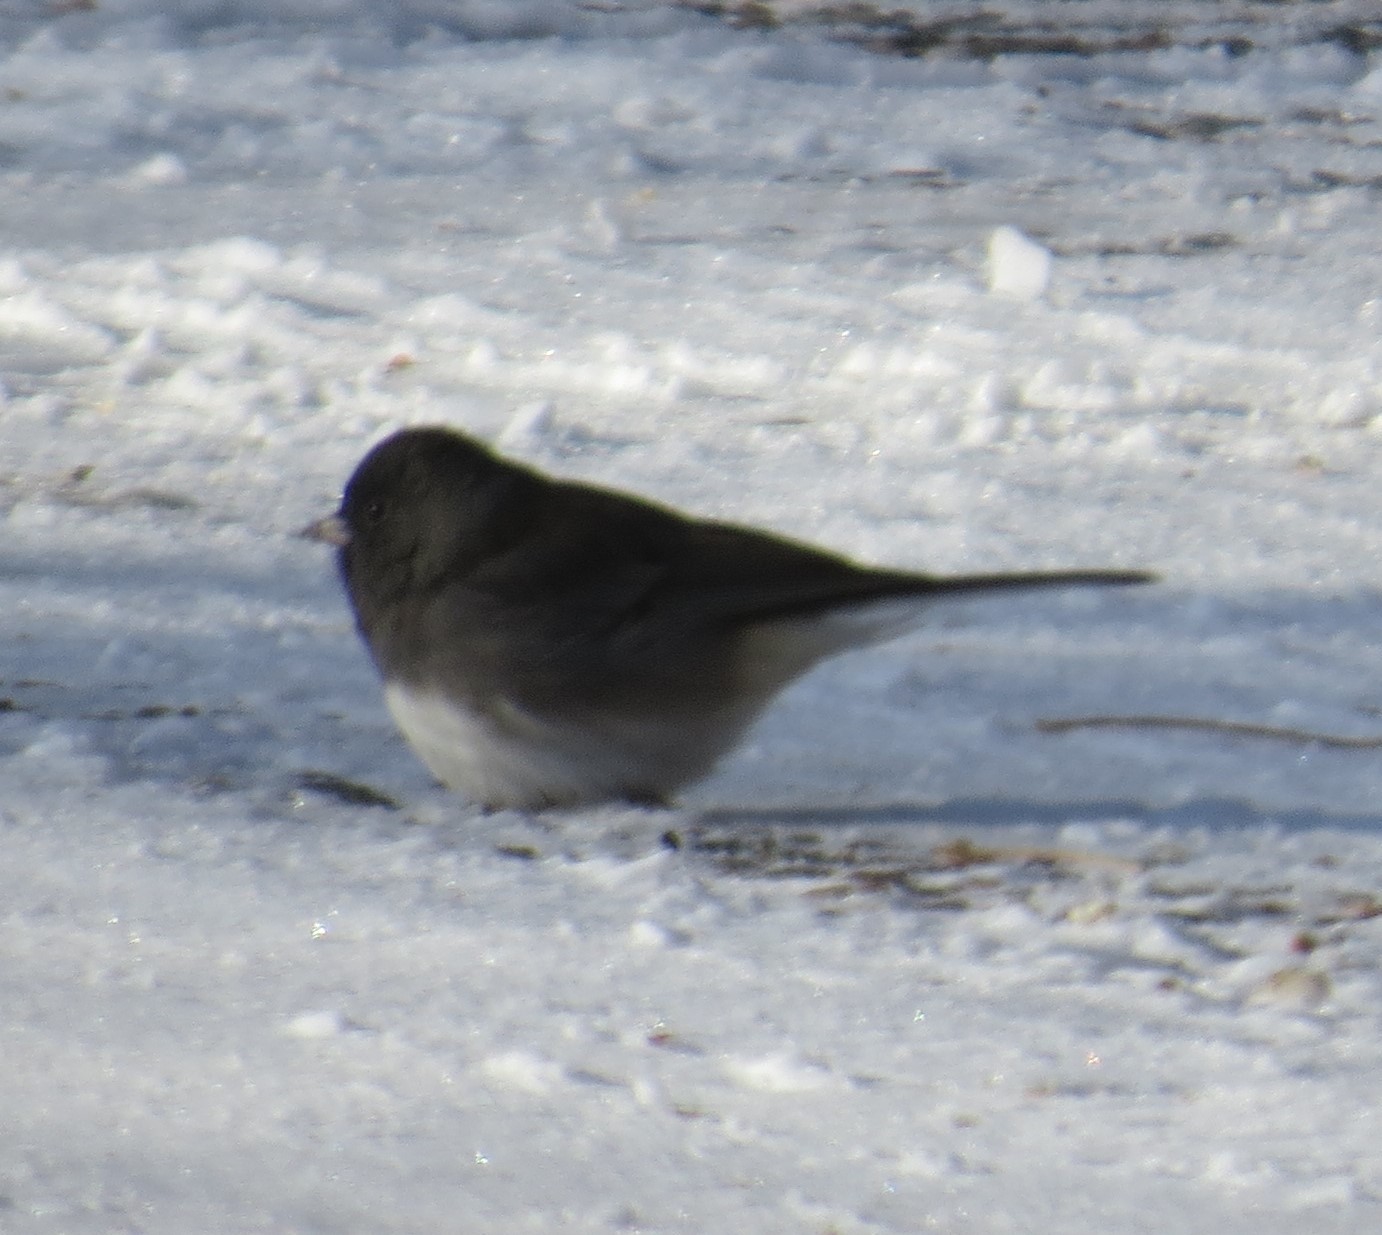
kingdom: Animalia
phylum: Chordata
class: Aves
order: Passeriformes
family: Passerellidae
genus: Junco
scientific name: Junco hyemalis
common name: Dark-eyed junco
